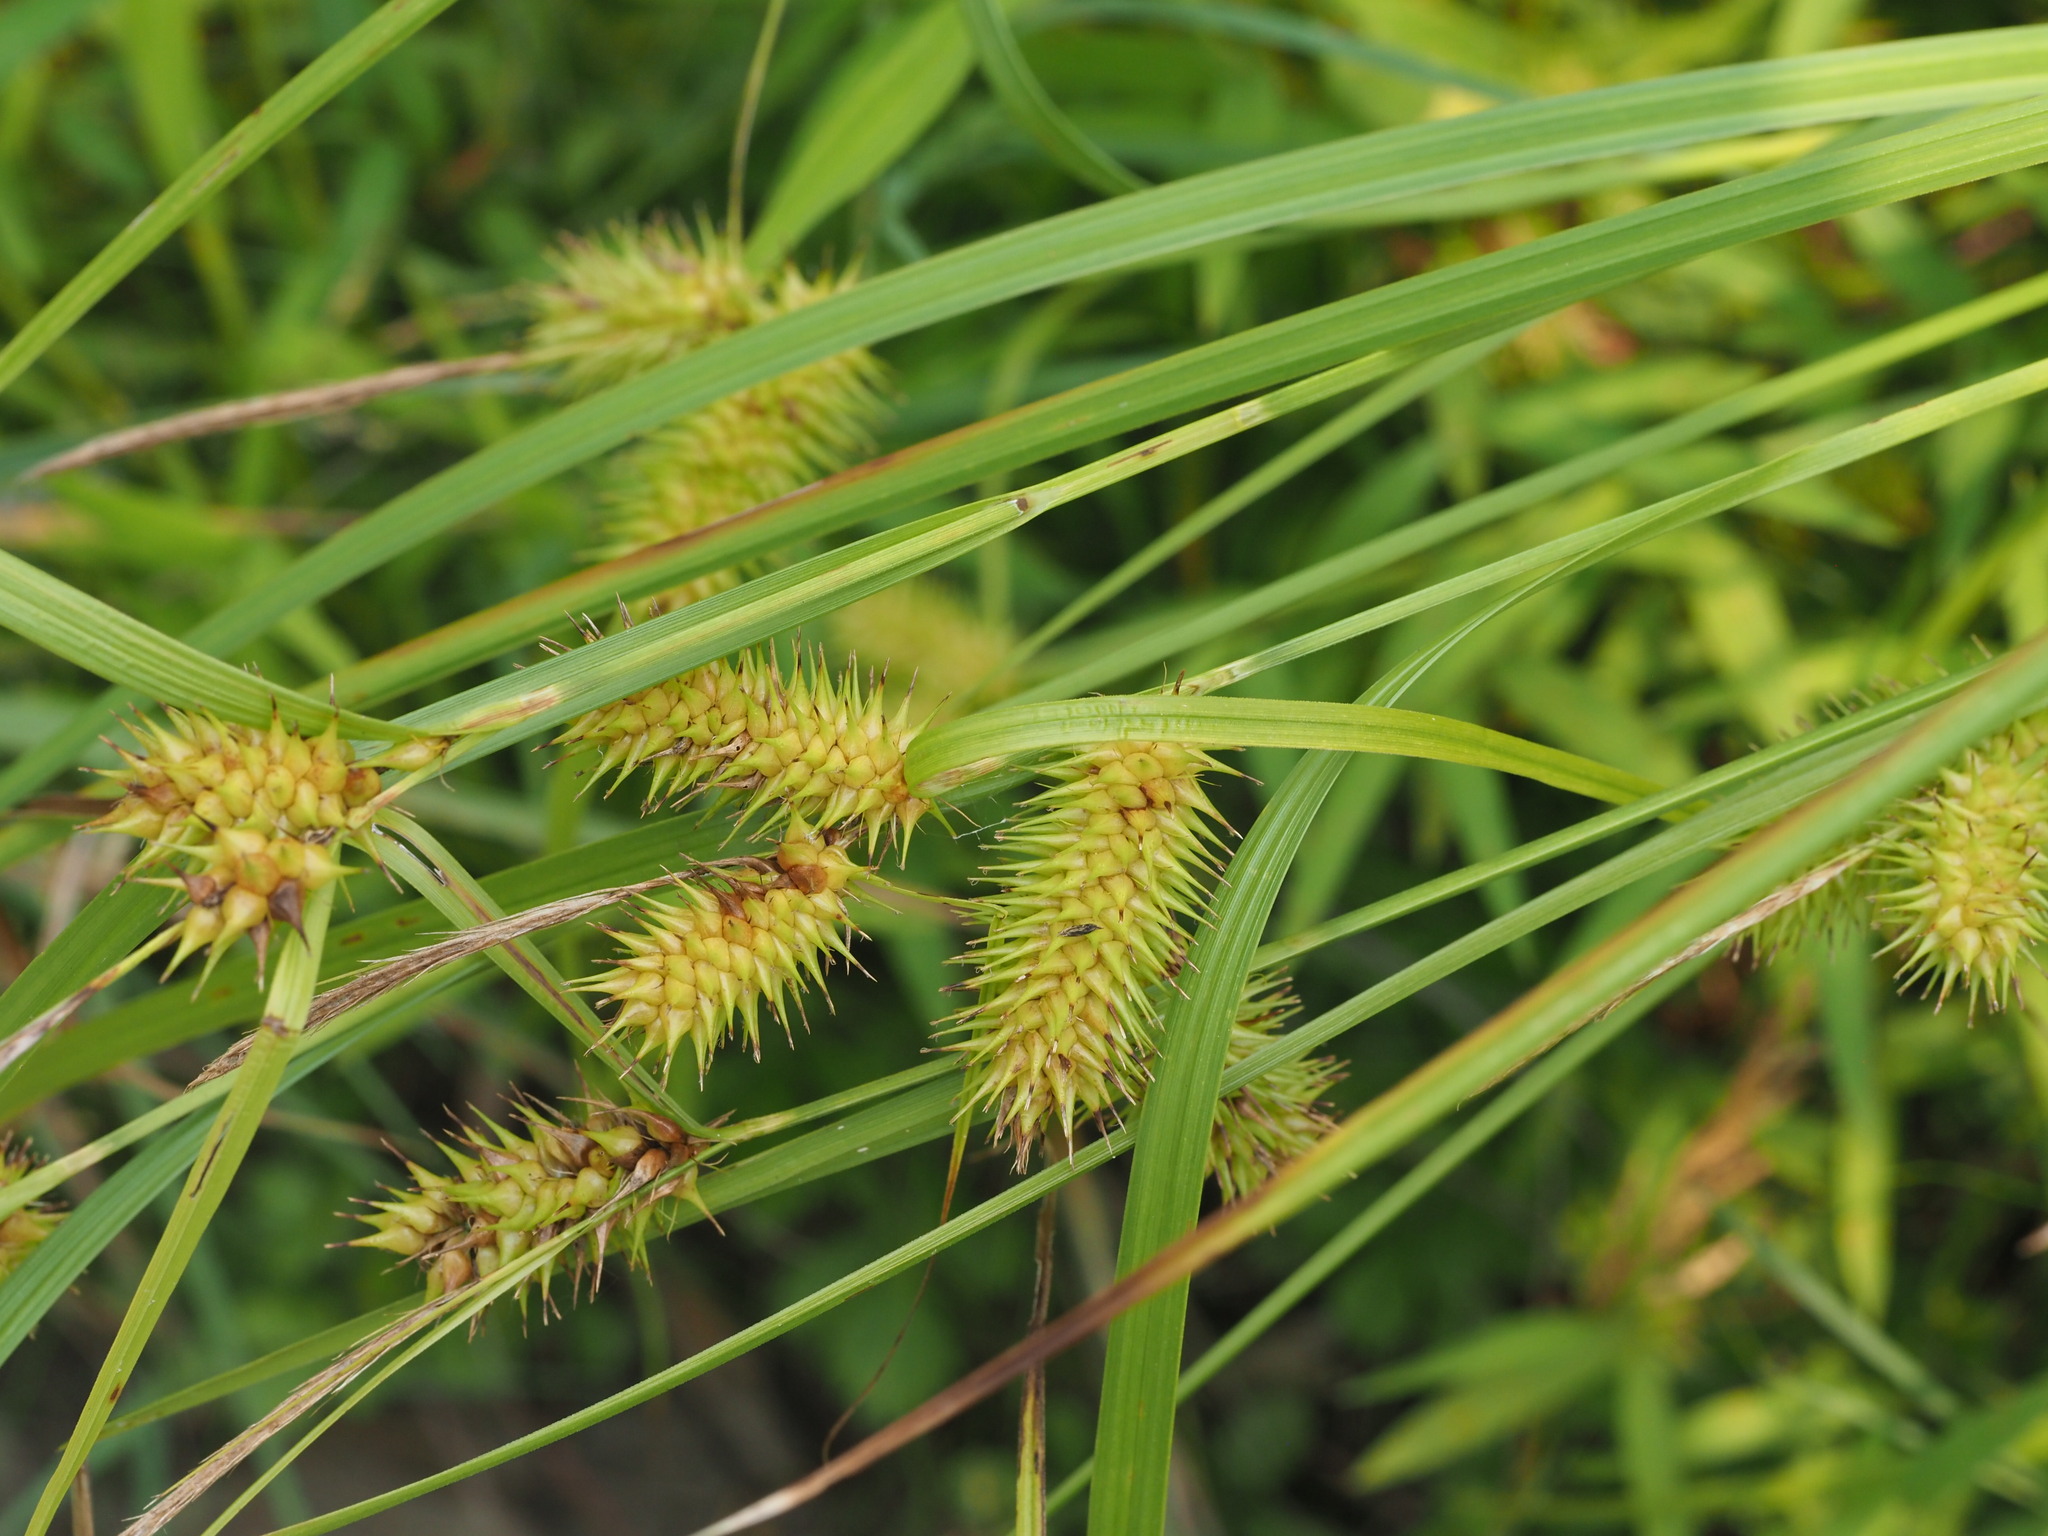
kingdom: Plantae
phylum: Tracheophyta
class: Liliopsida
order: Poales
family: Cyperaceae
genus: Carex
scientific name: Carex lurida
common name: Sallow sedge
